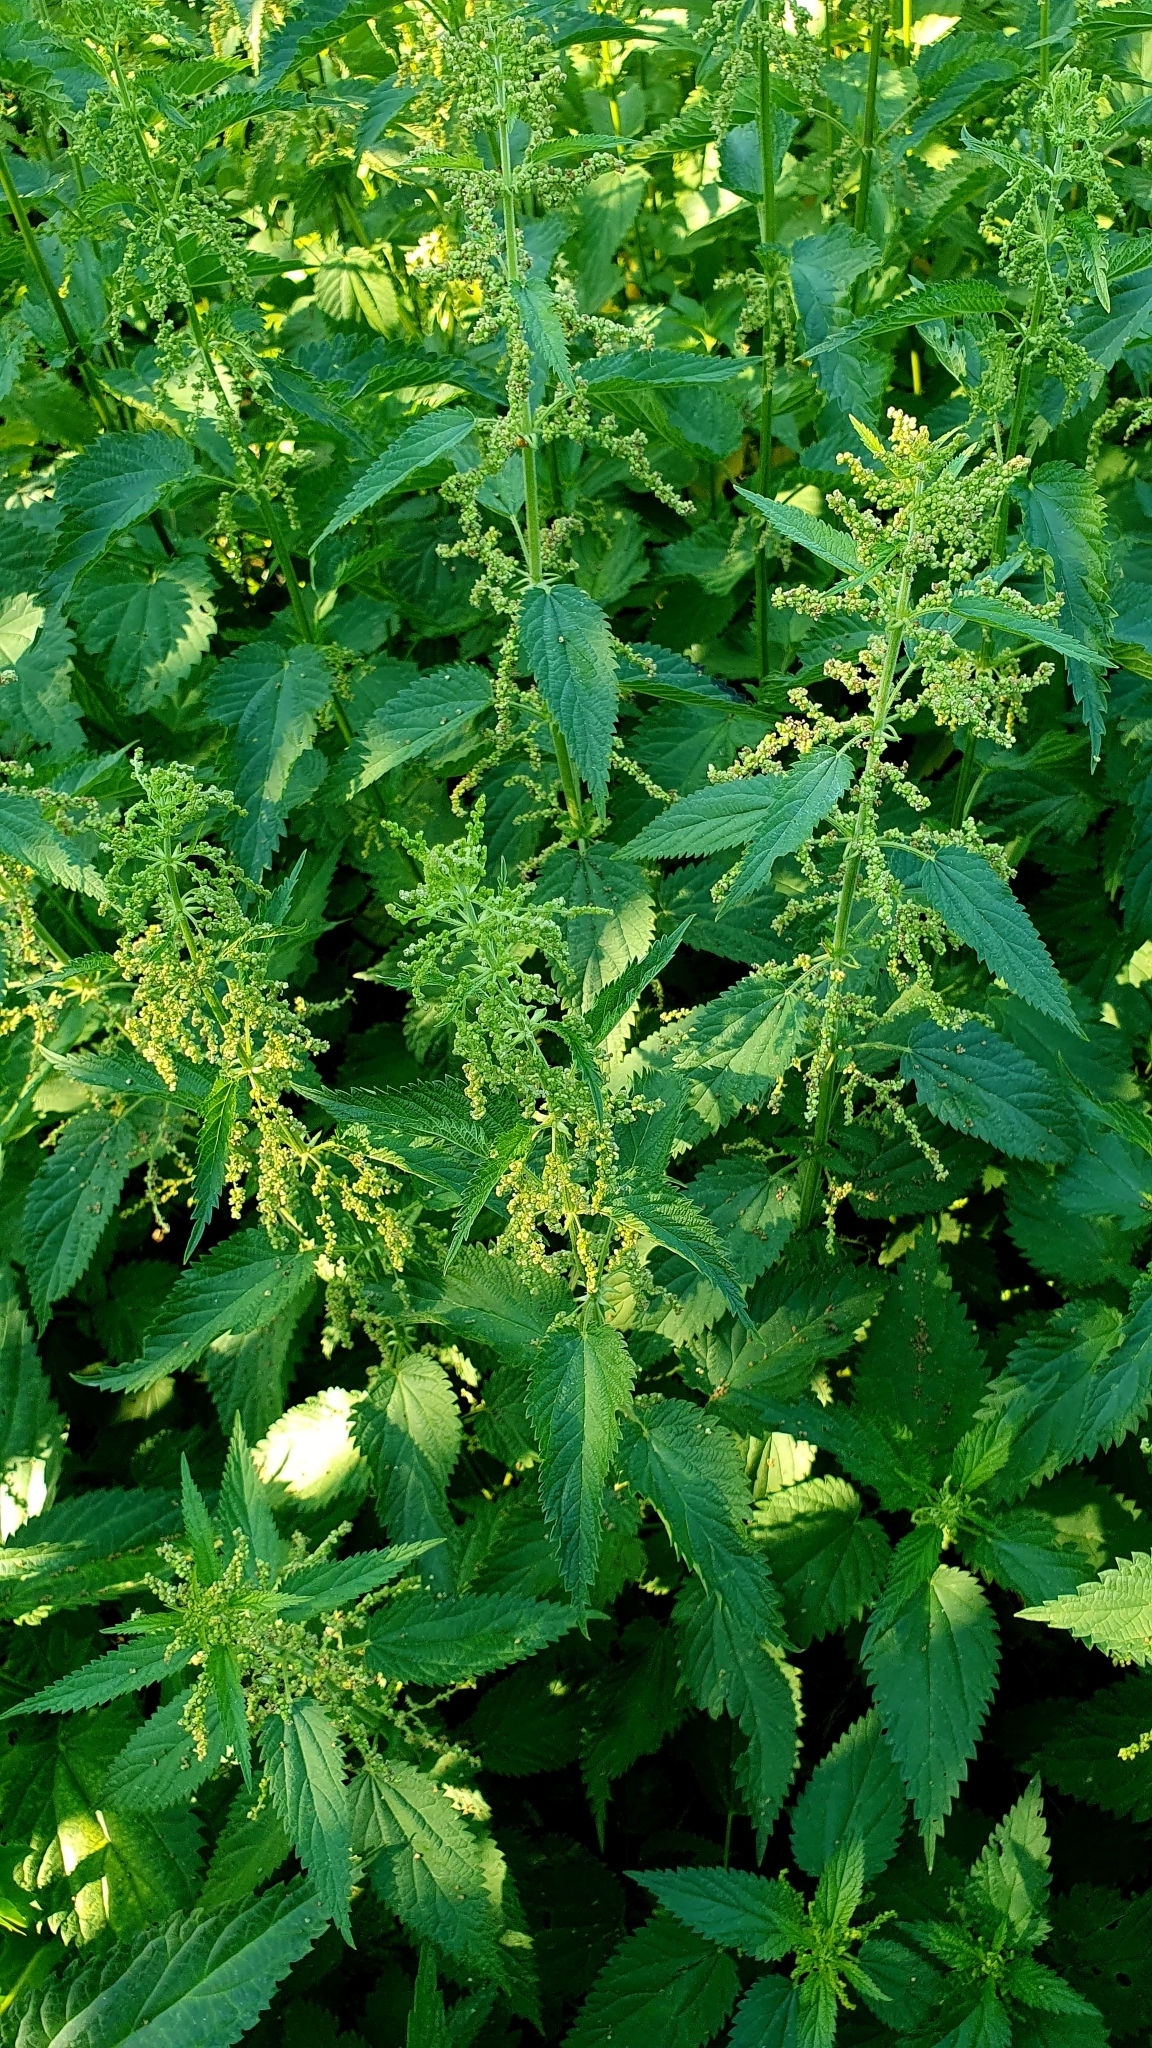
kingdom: Plantae
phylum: Tracheophyta
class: Magnoliopsida
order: Rosales
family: Urticaceae
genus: Urtica
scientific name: Urtica dioica
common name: Common nettle
